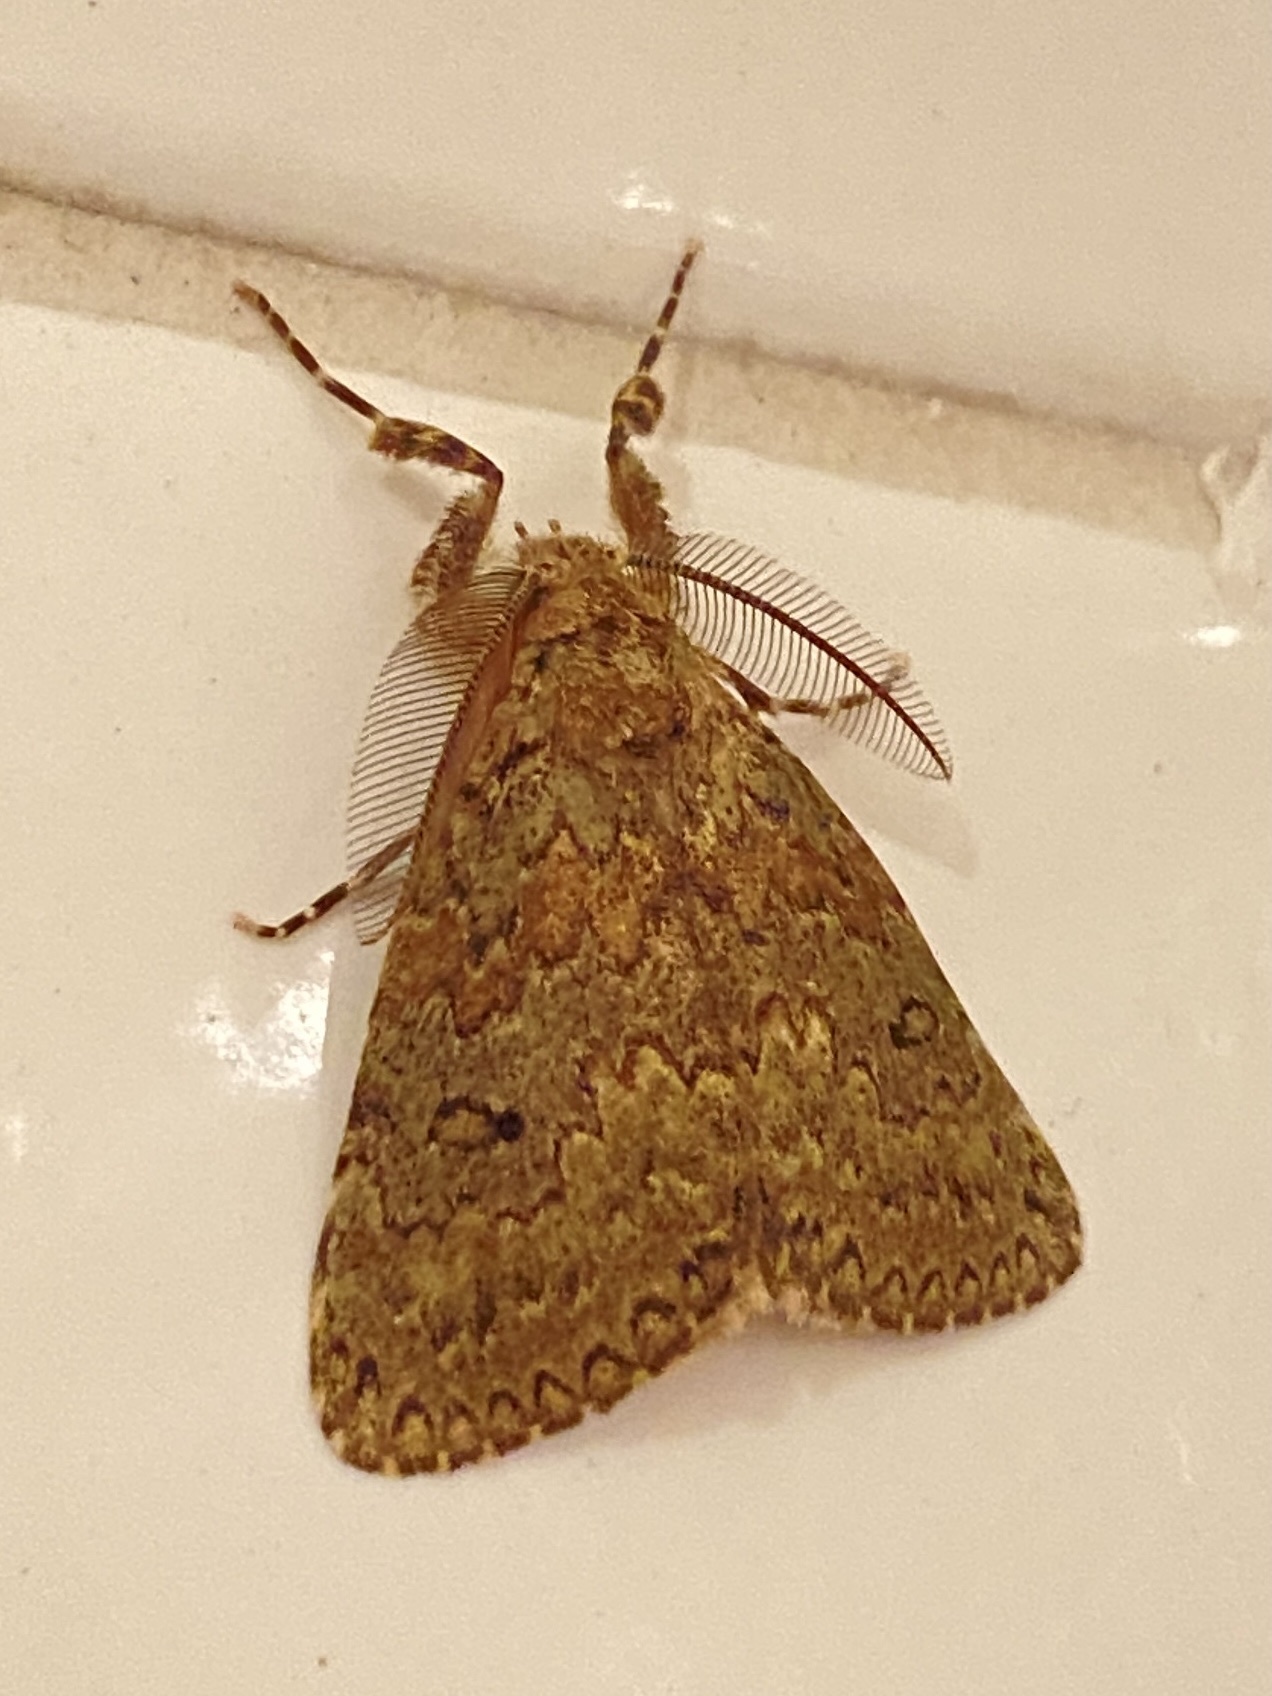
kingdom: Animalia
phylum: Arthropoda
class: Insecta
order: Lepidoptera
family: Erebidae
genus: Laelia
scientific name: Laelia fusca
